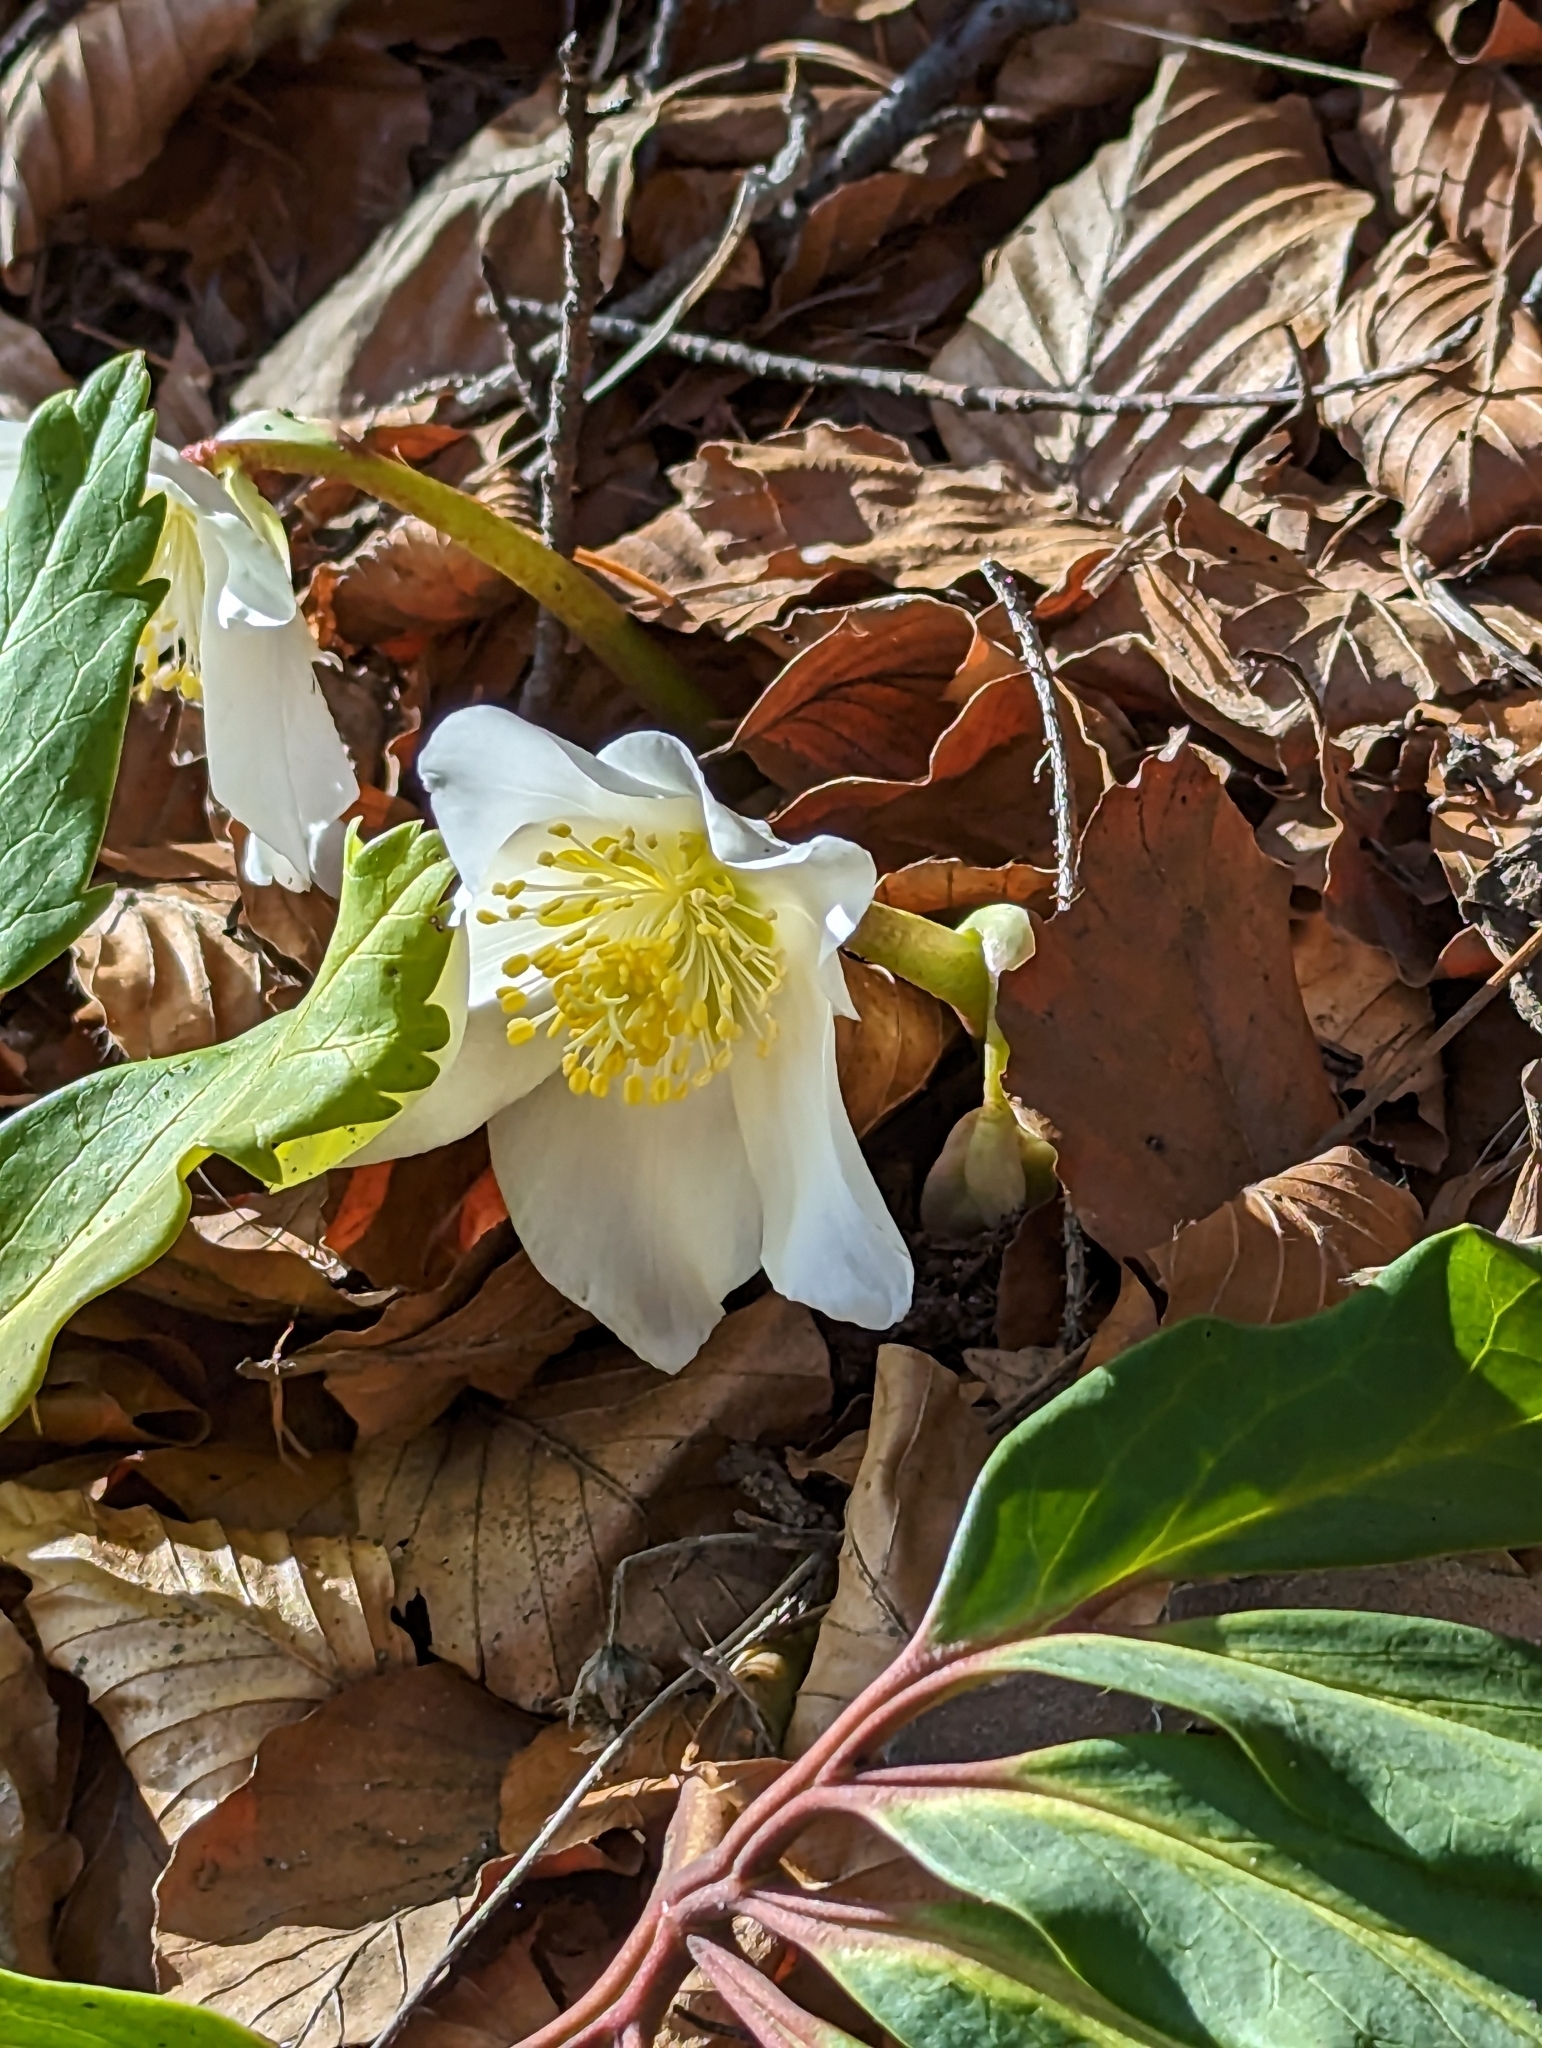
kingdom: Plantae
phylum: Tracheophyta
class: Magnoliopsida
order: Ranunculales
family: Ranunculaceae
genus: Helleborus
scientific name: Helleborus niger
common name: Black hellebore
